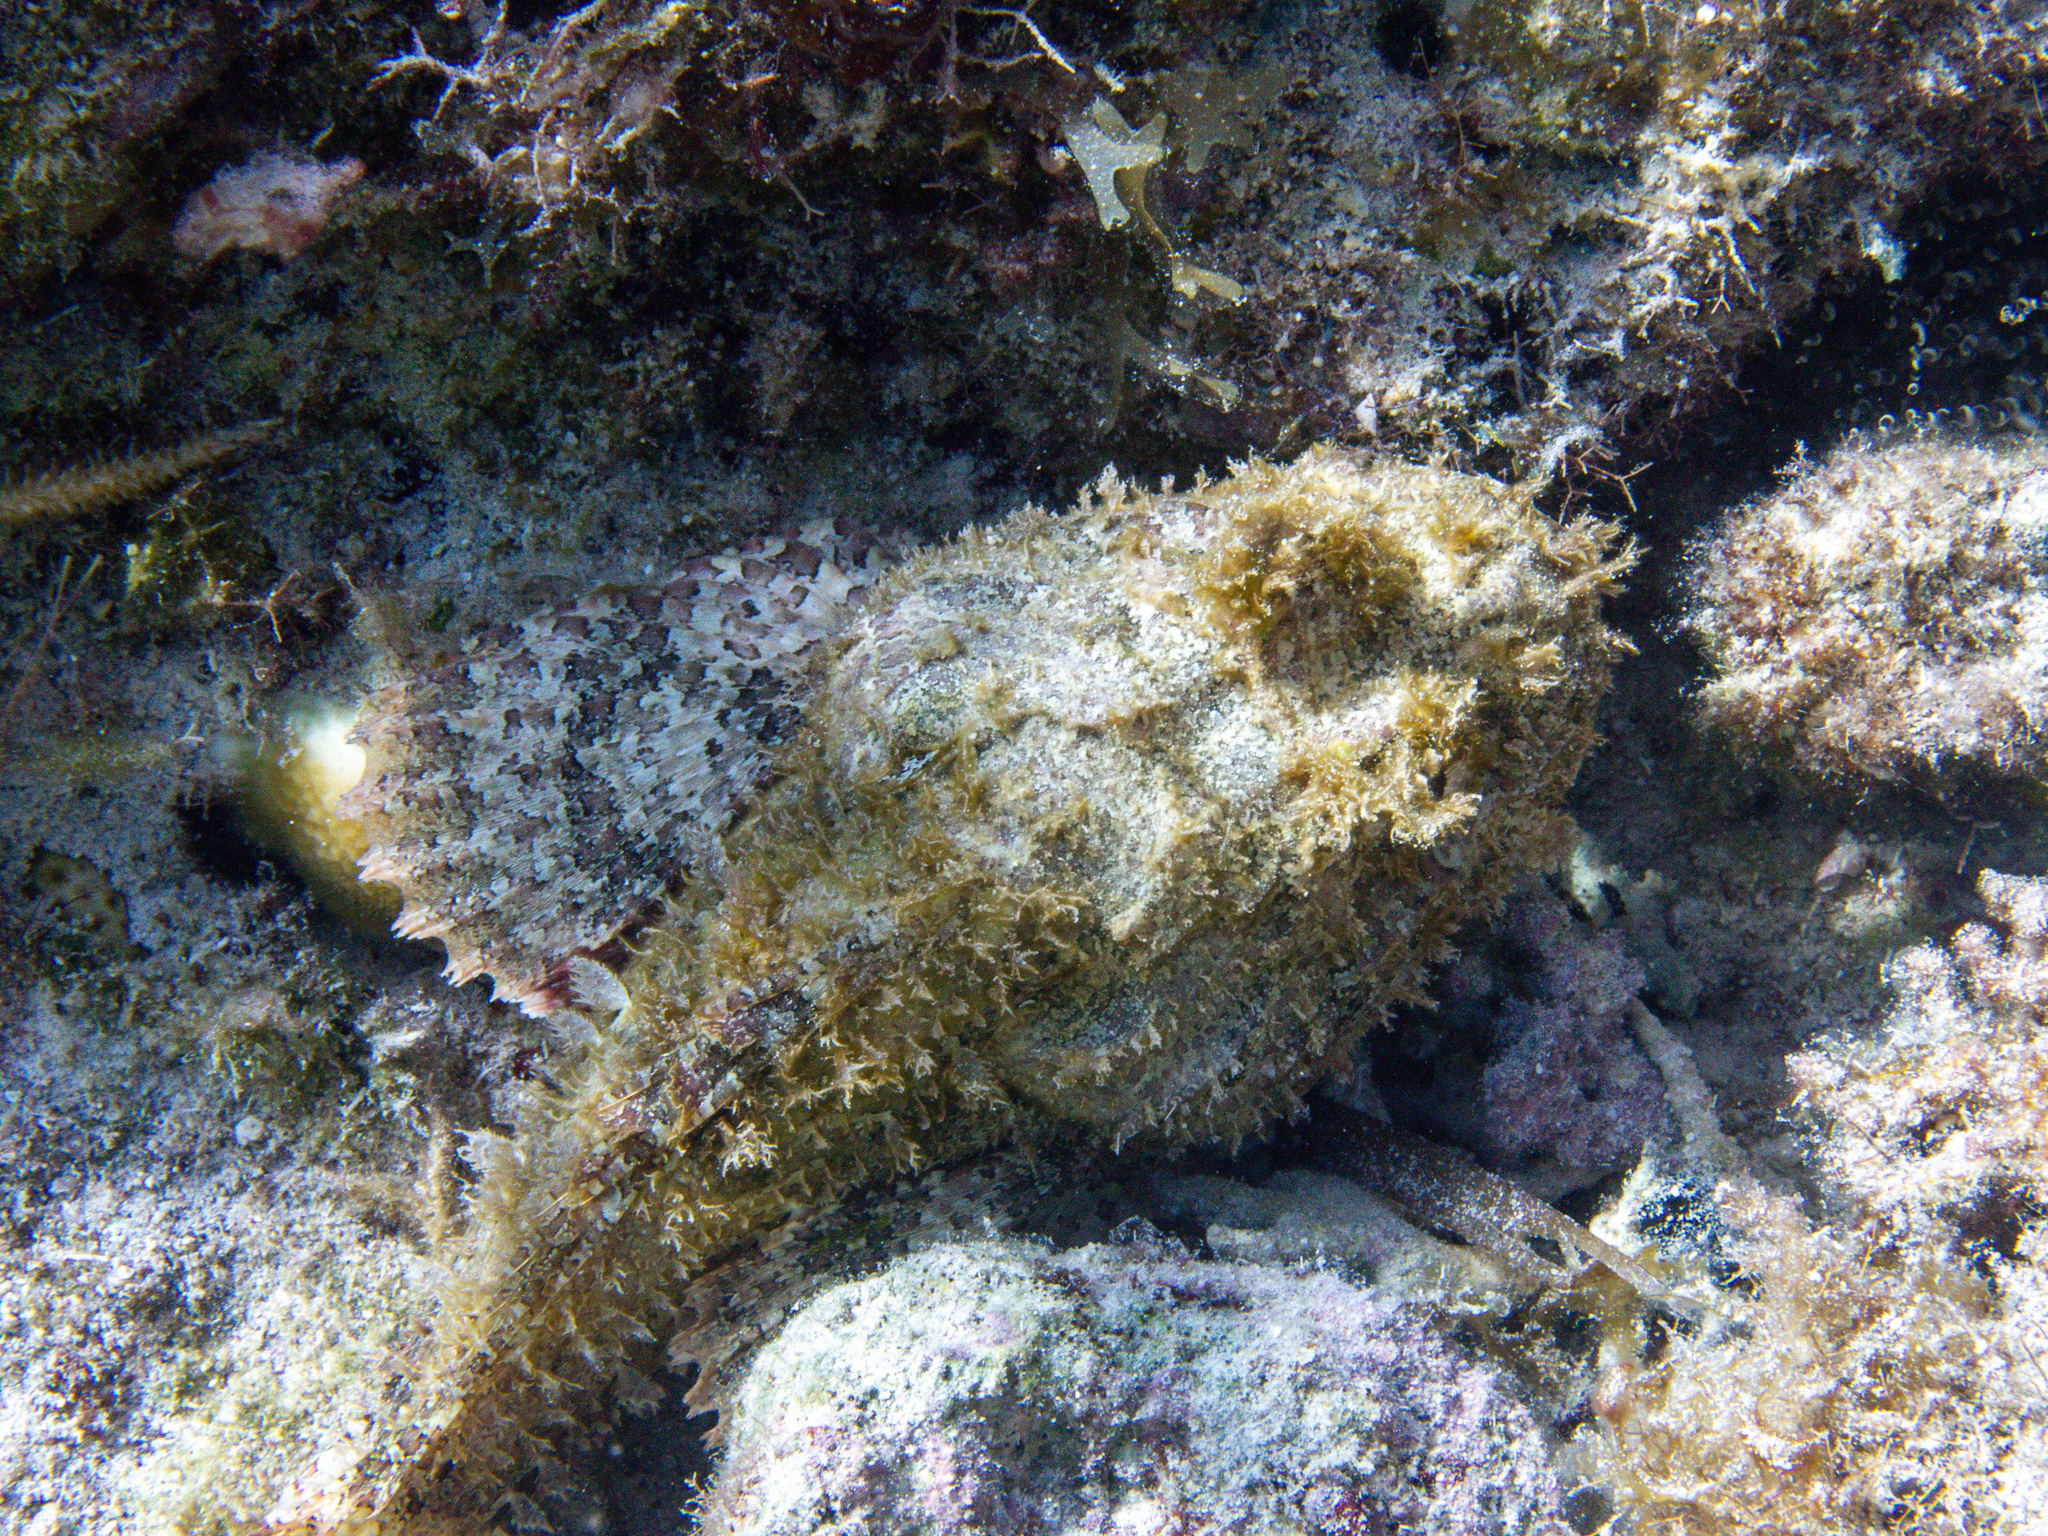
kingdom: Animalia
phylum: Chordata
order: Scorpaeniformes
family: Scorpaenidae
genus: Scorpaena
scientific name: Scorpaena plumieri
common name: Spotted scorpionfish
